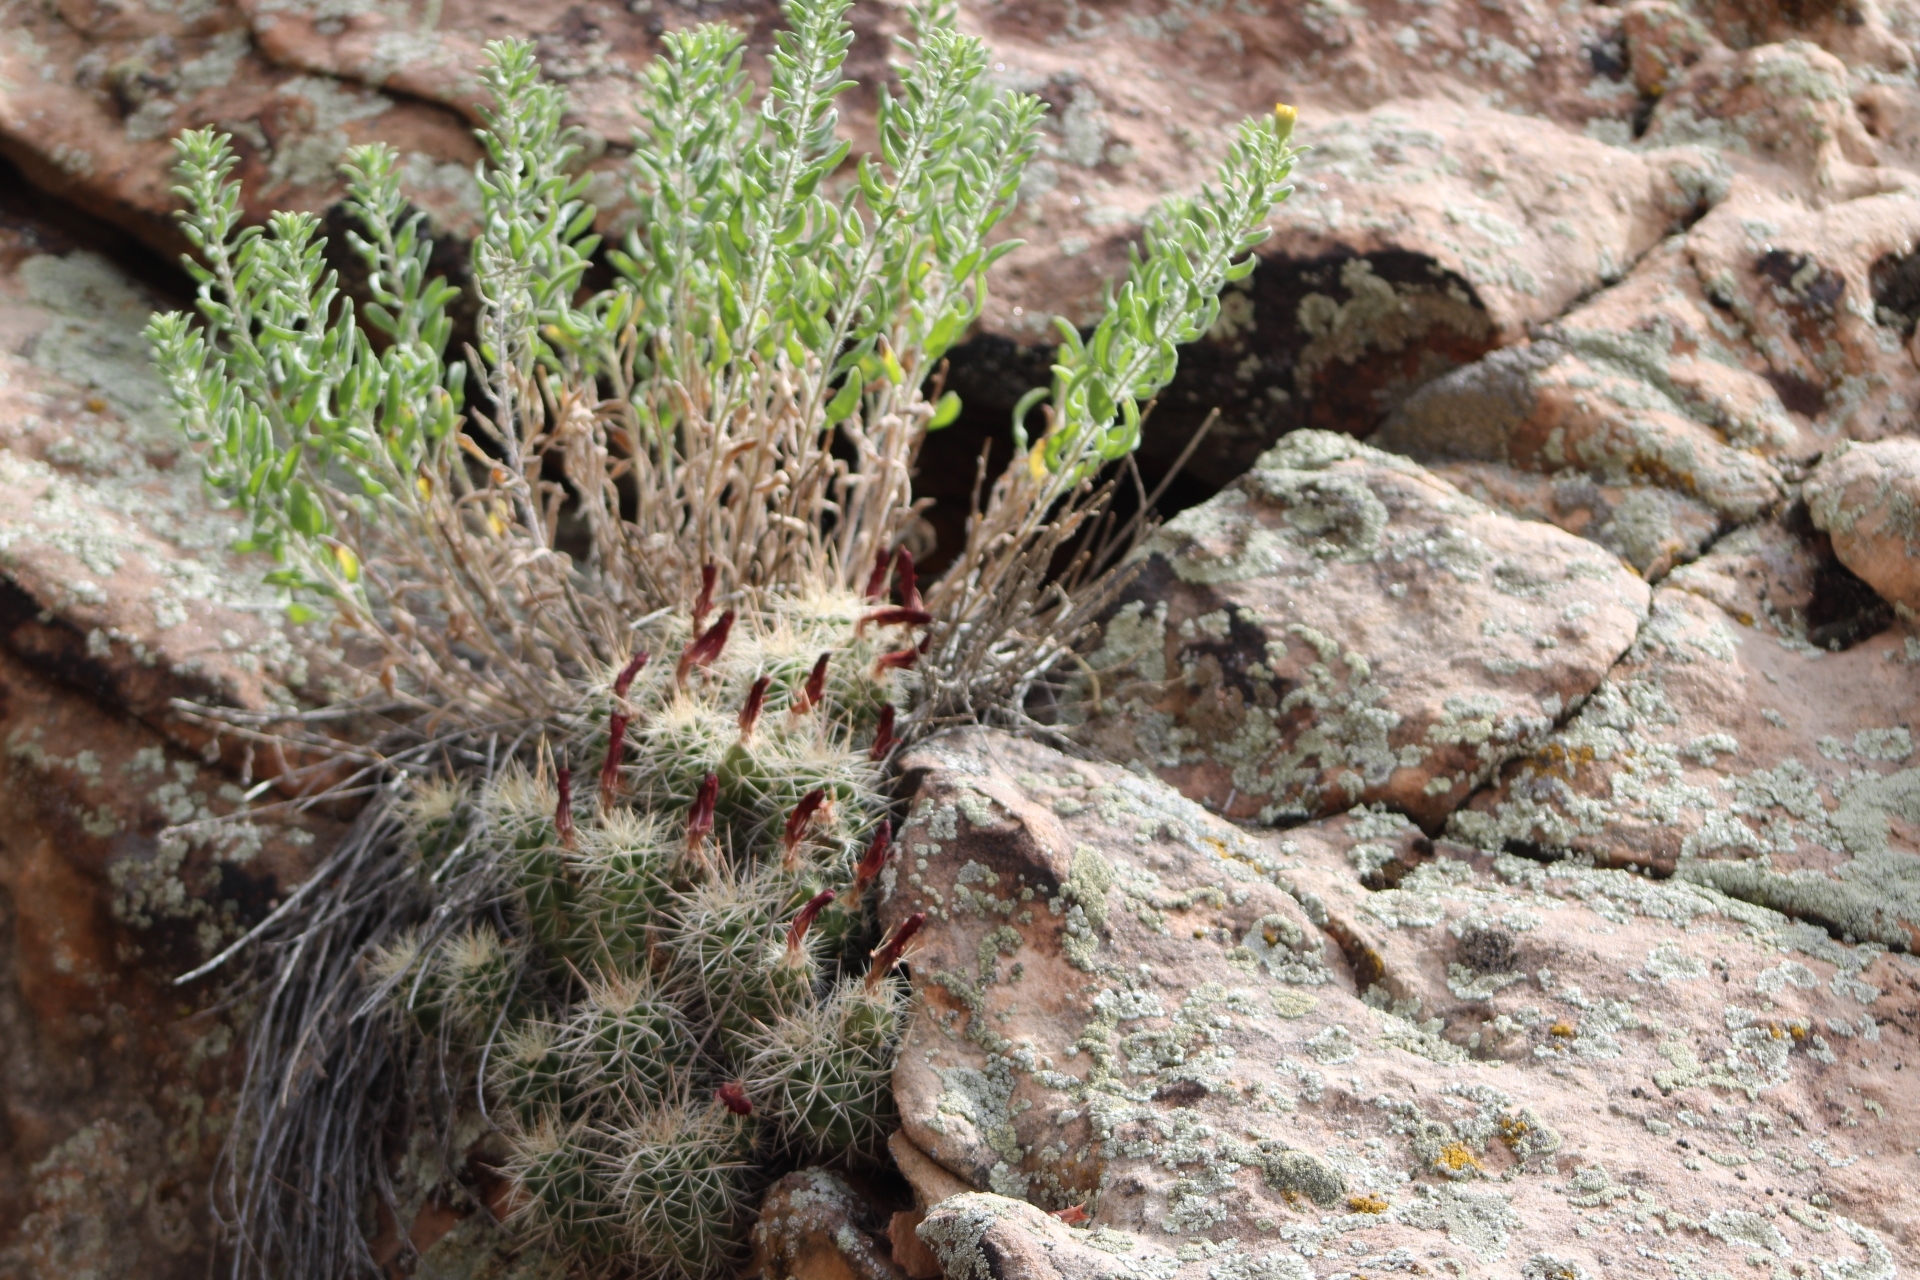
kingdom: Plantae
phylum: Tracheophyta
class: Magnoliopsida
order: Caryophyllales
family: Cactaceae
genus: Echinocereus
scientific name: Echinocereus triglochidiatus
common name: Claretcup hedgehog
